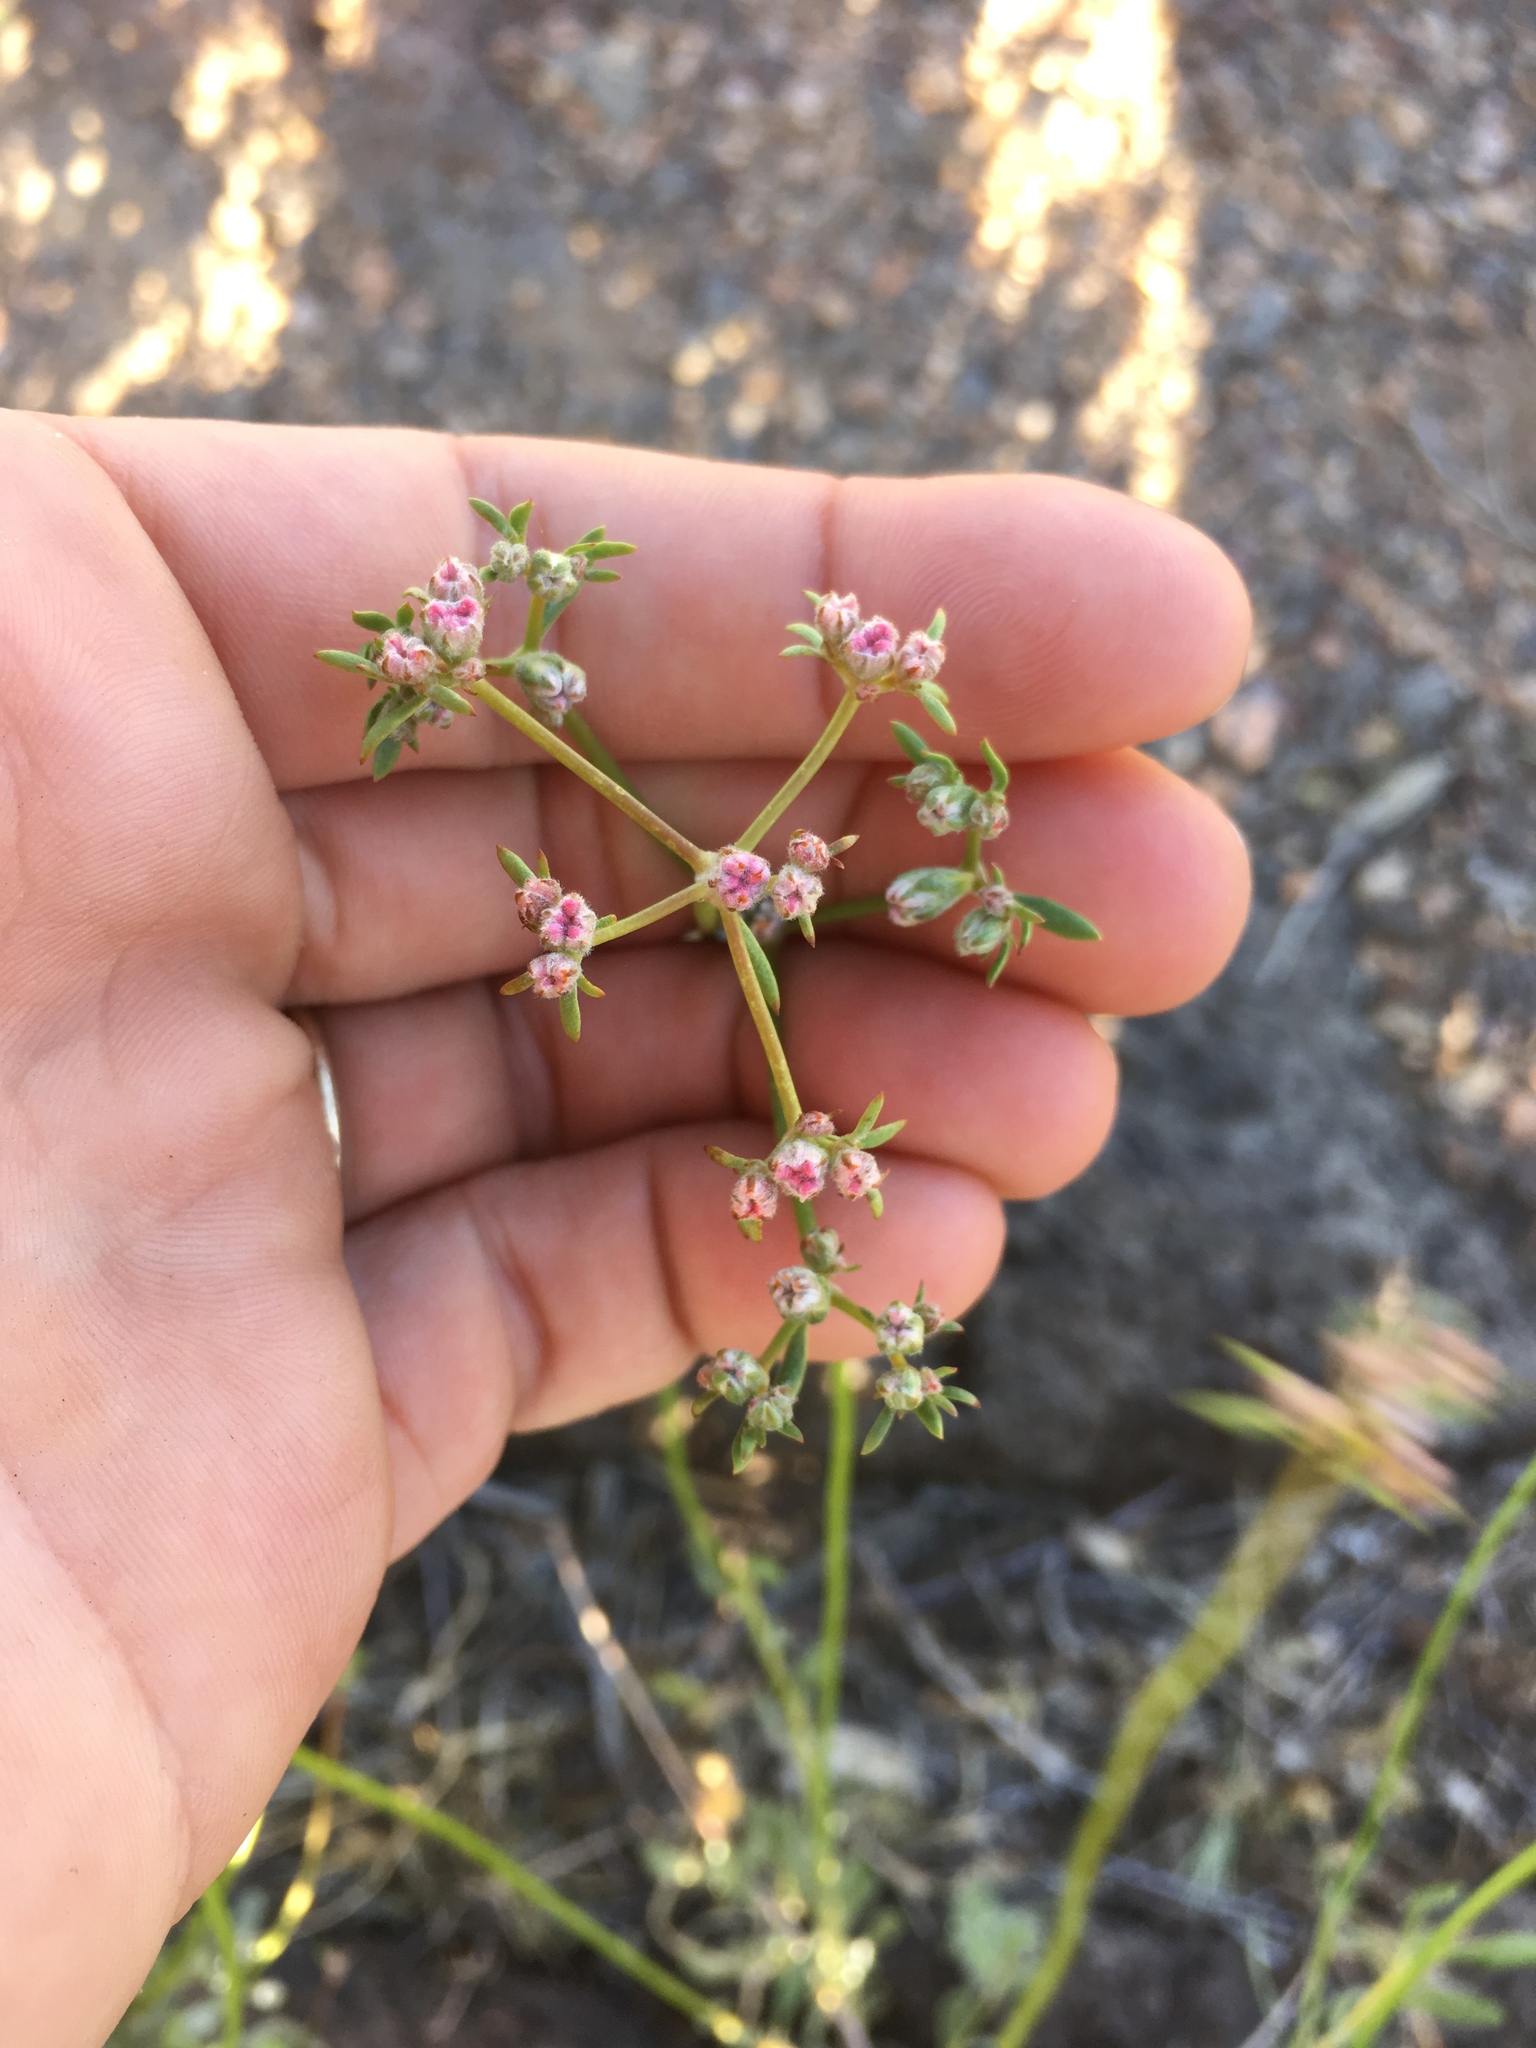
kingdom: Plantae
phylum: Tracheophyta
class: Magnoliopsida
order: Caryophyllales
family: Polygonaceae
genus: Eriogonum
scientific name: Eriogonum fasciculatum
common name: California wild buckwheat
